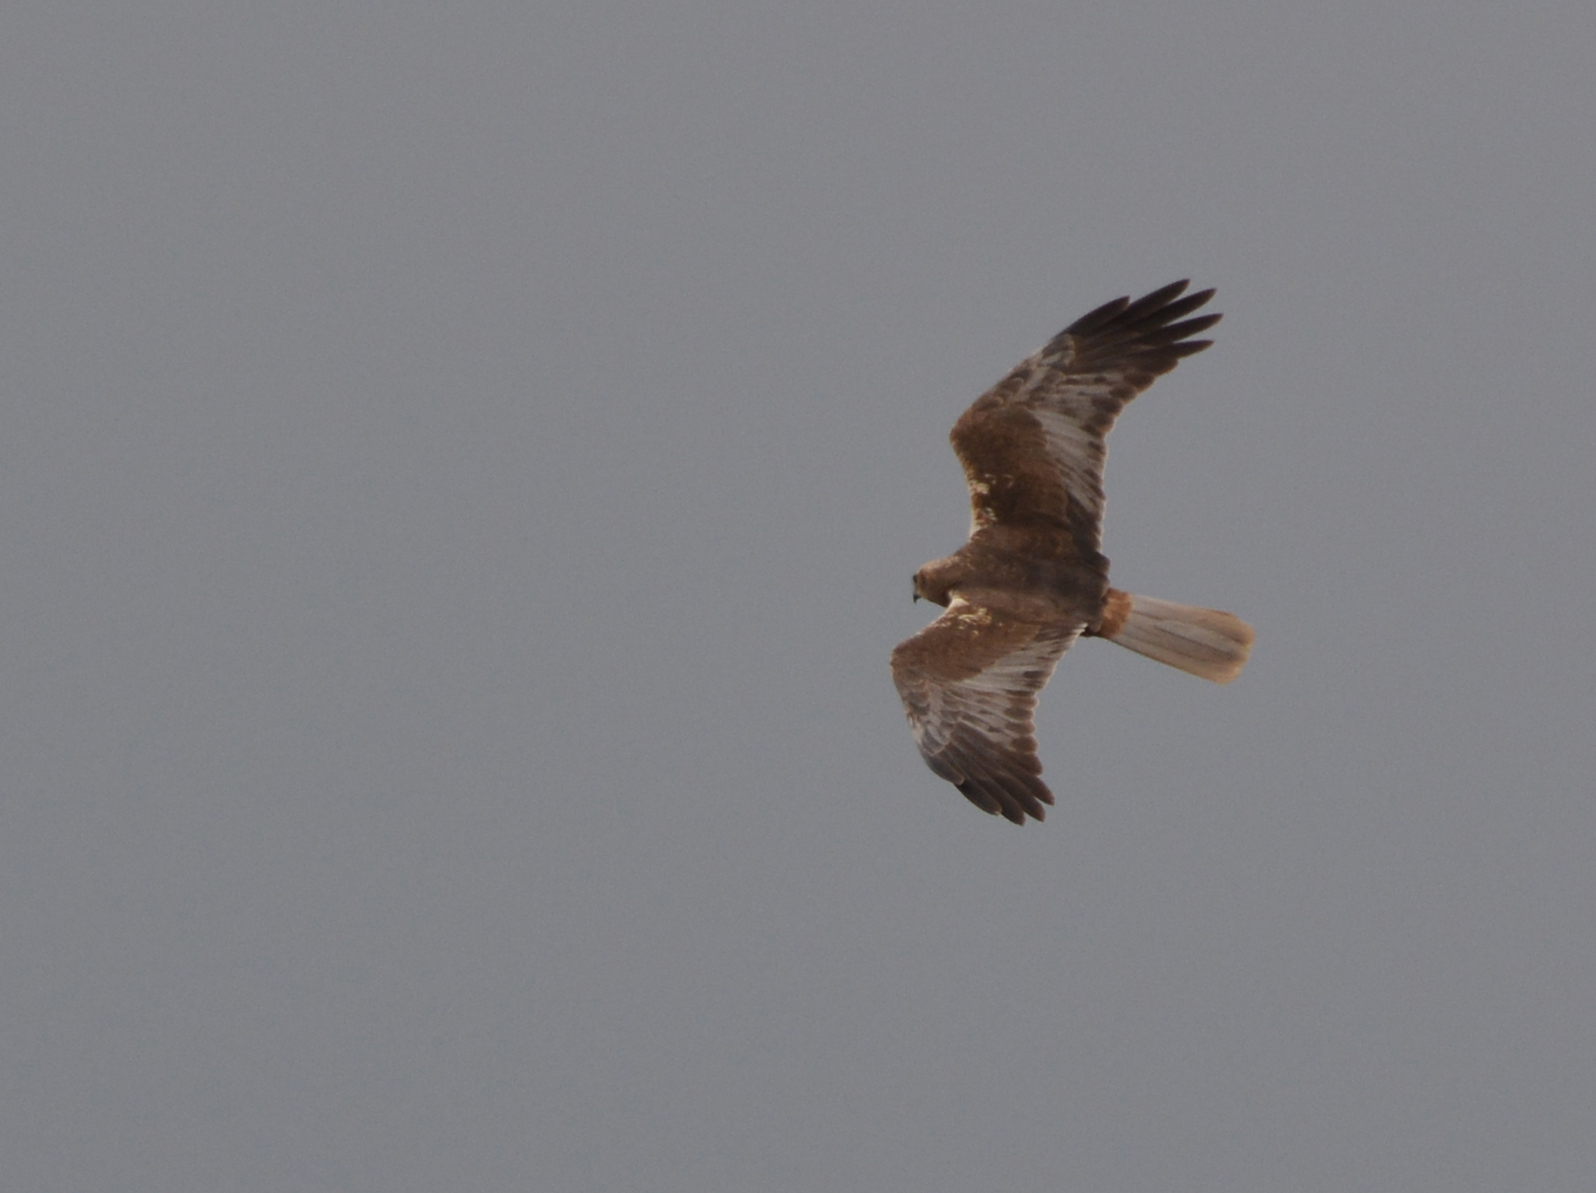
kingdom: Animalia
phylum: Chordata
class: Aves
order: Accipitriformes
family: Accipitridae
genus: Circus
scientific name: Circus aeruginosus
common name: Western marsh harrier
